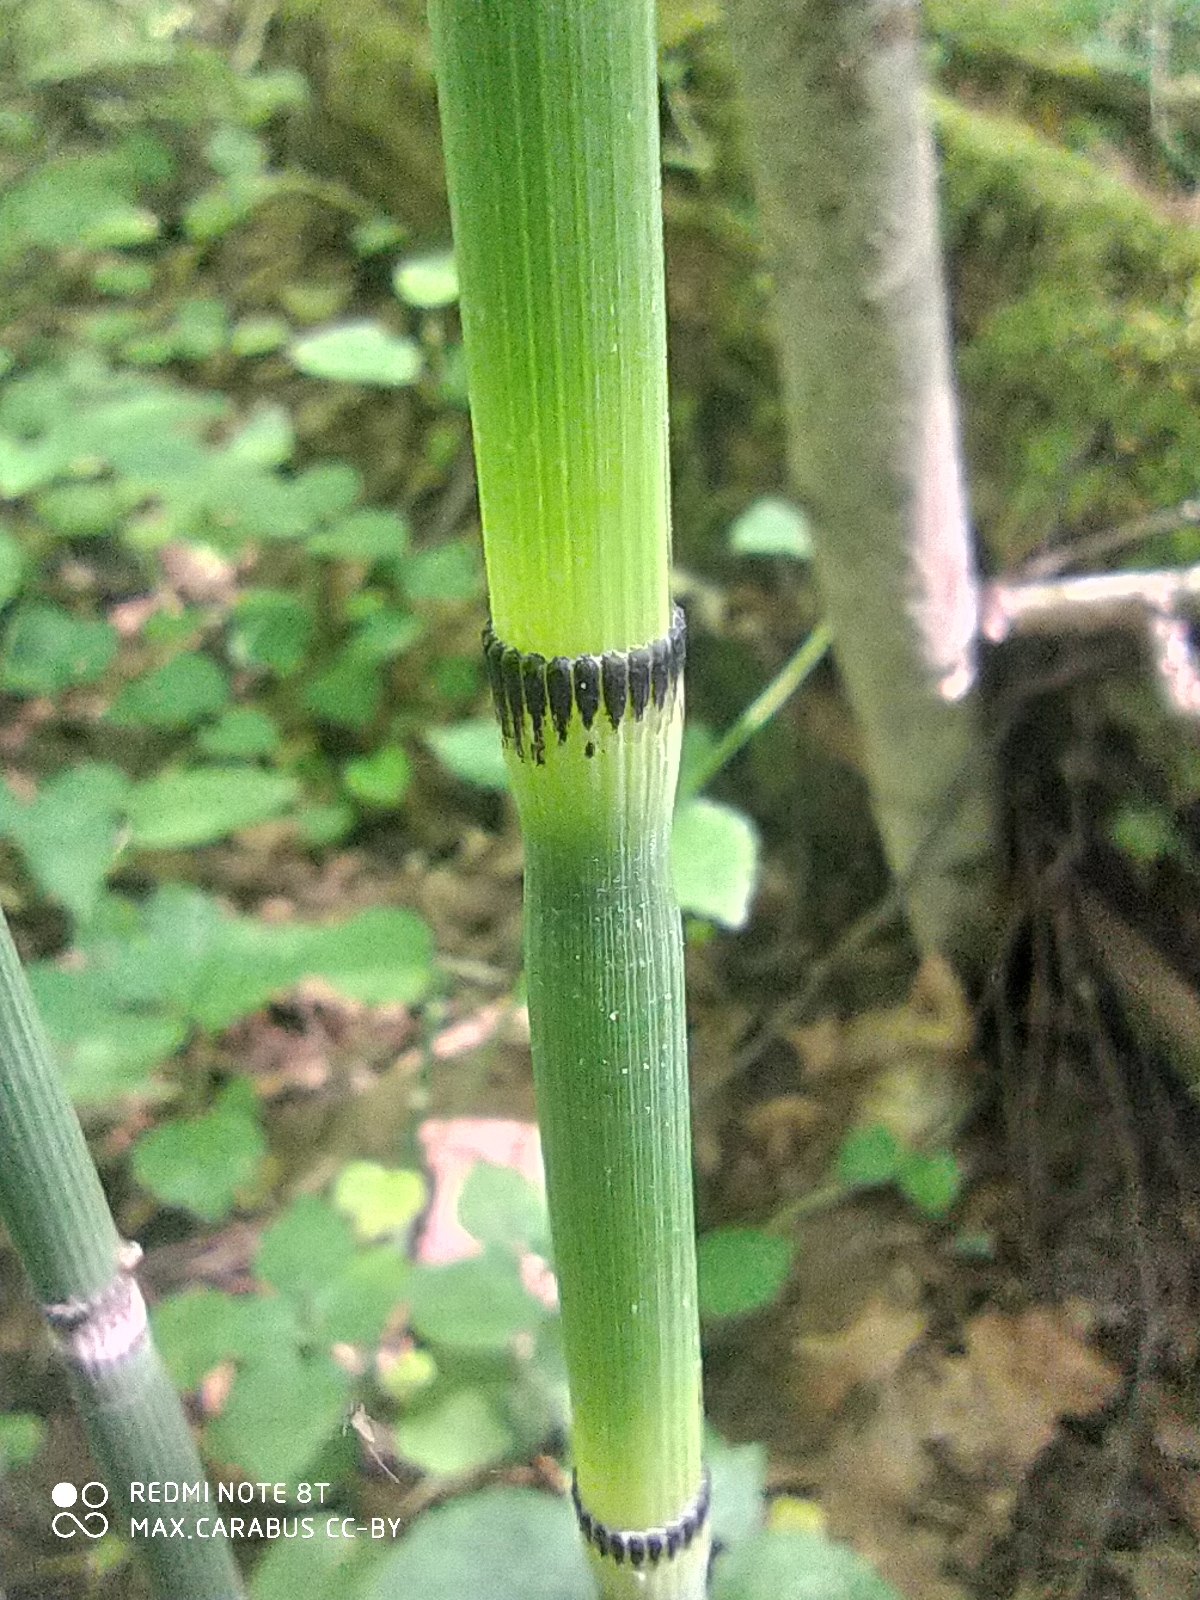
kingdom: Plantae
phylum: Tracheophyta
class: Polypodiopsida
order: Equisetales
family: Equisetaceae
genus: Equisetum
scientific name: Equisetum hyemale
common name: Rough horsetail
